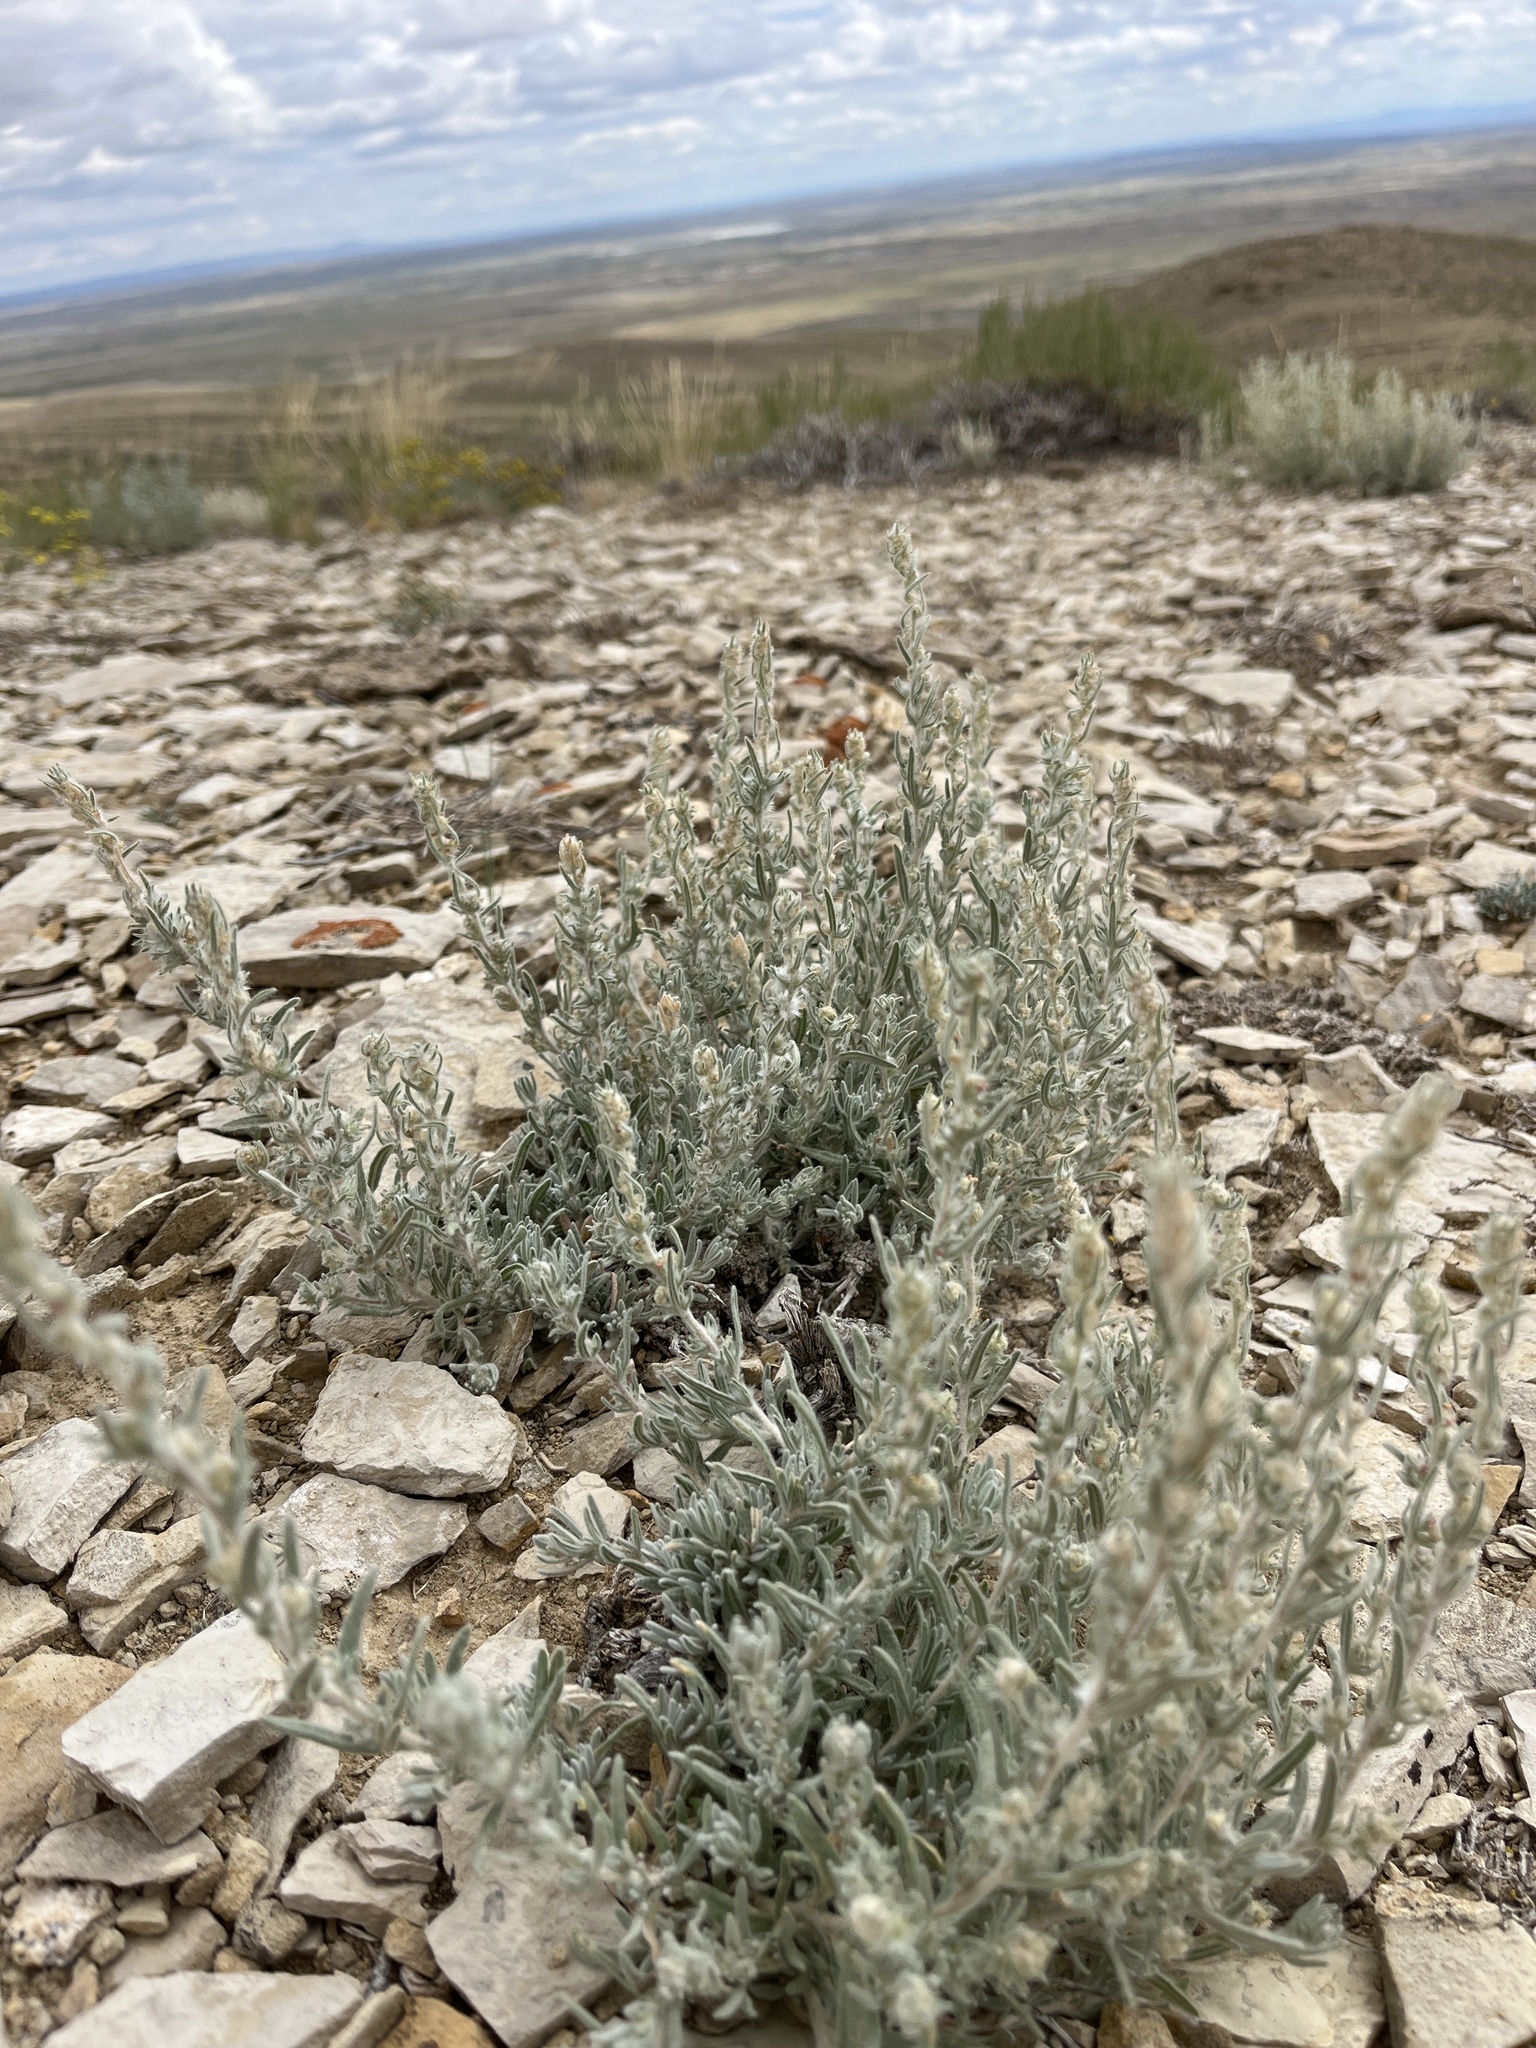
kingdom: Plantae
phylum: Tracheophyta
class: Magnoliopsida
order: Caryophyllales
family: Amaranthaceae
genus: Krascheninnikovia
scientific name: Krascheninnikovia lanata
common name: Winterfat
